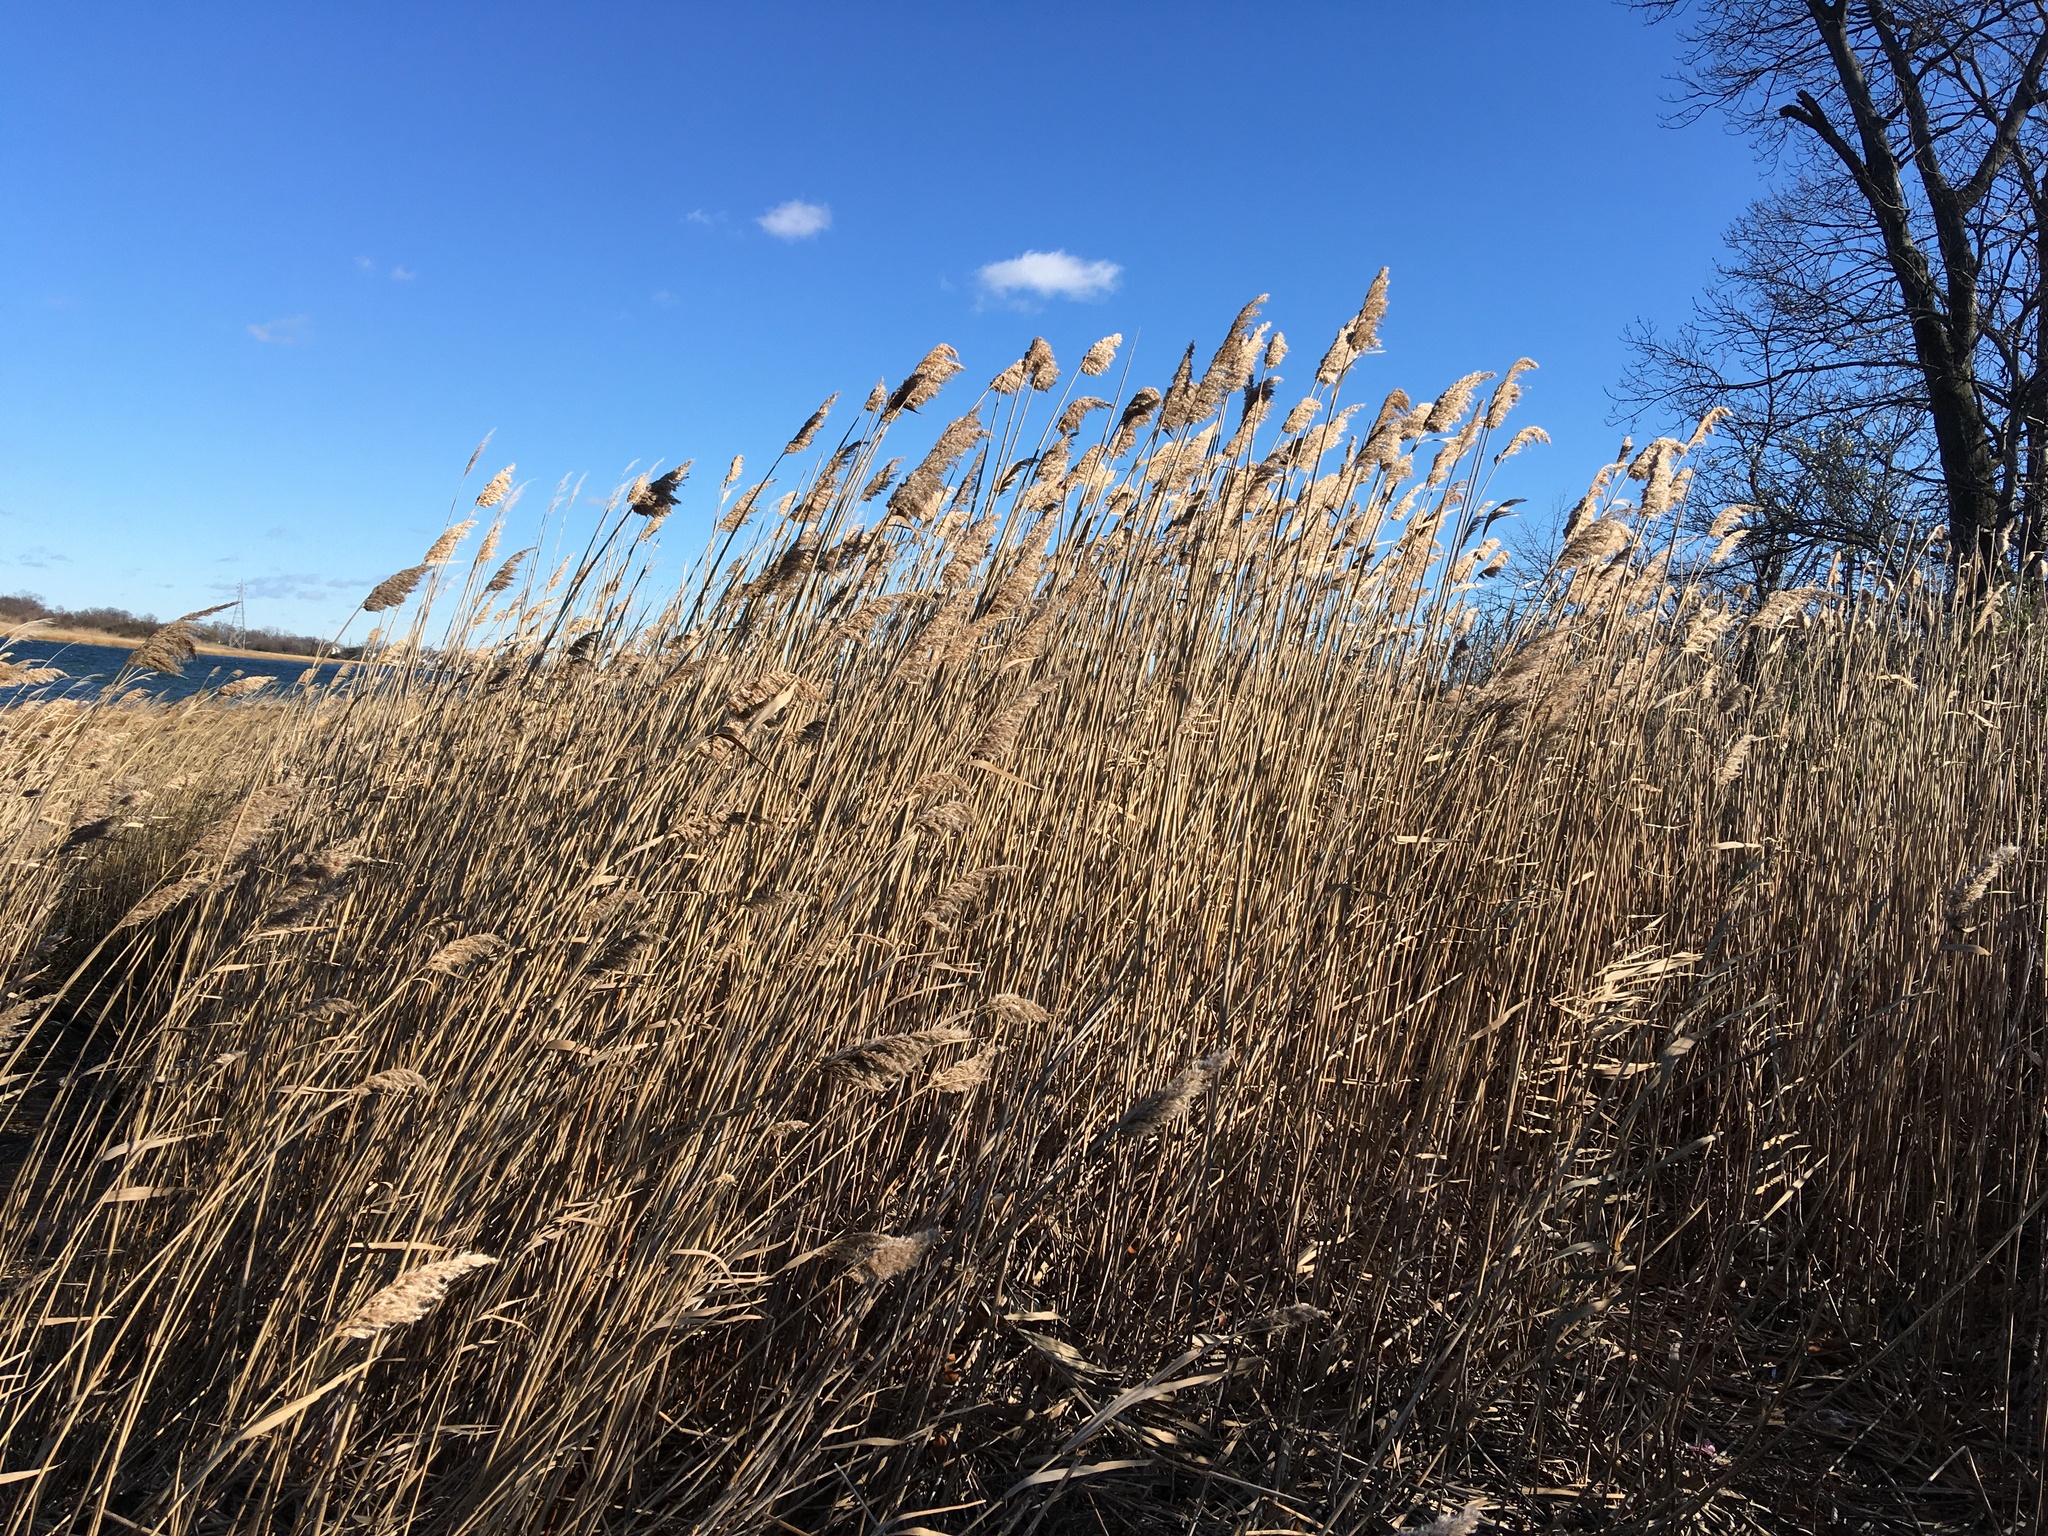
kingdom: Plantae
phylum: Tracheophyta
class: Liliopsida
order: Poales
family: Poaceae
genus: Phragmites
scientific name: Phragmites australis
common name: Common reed
